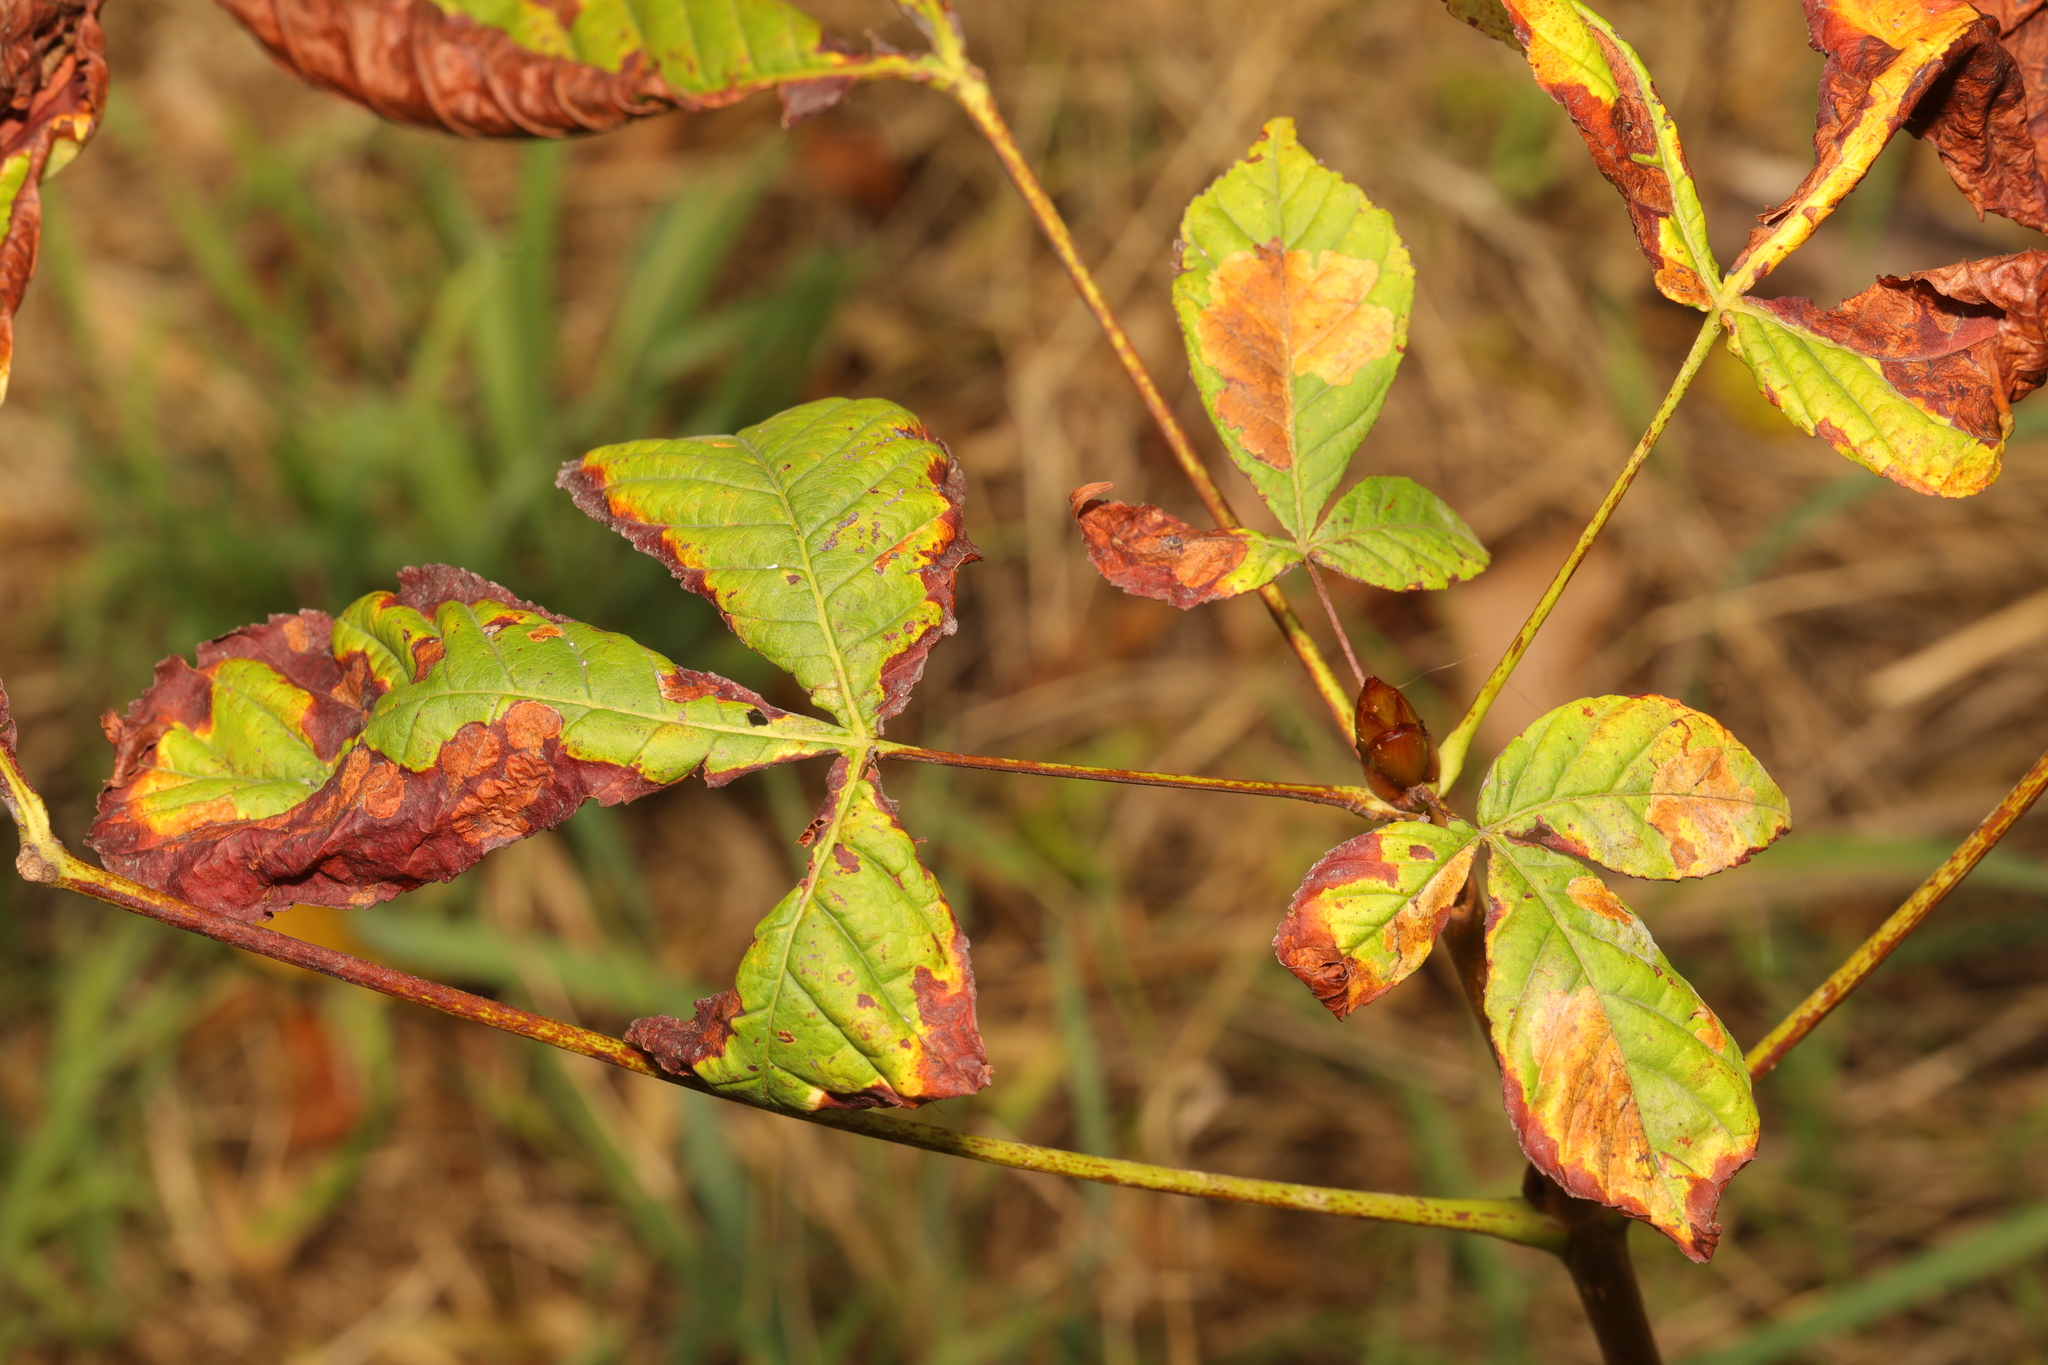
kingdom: Plantae
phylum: Tracheophyta
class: Magnoliopsida
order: Sapindales
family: Sapindaceae
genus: Aesculus
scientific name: Aesculus hippocastanum
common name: Horse-chestnut
